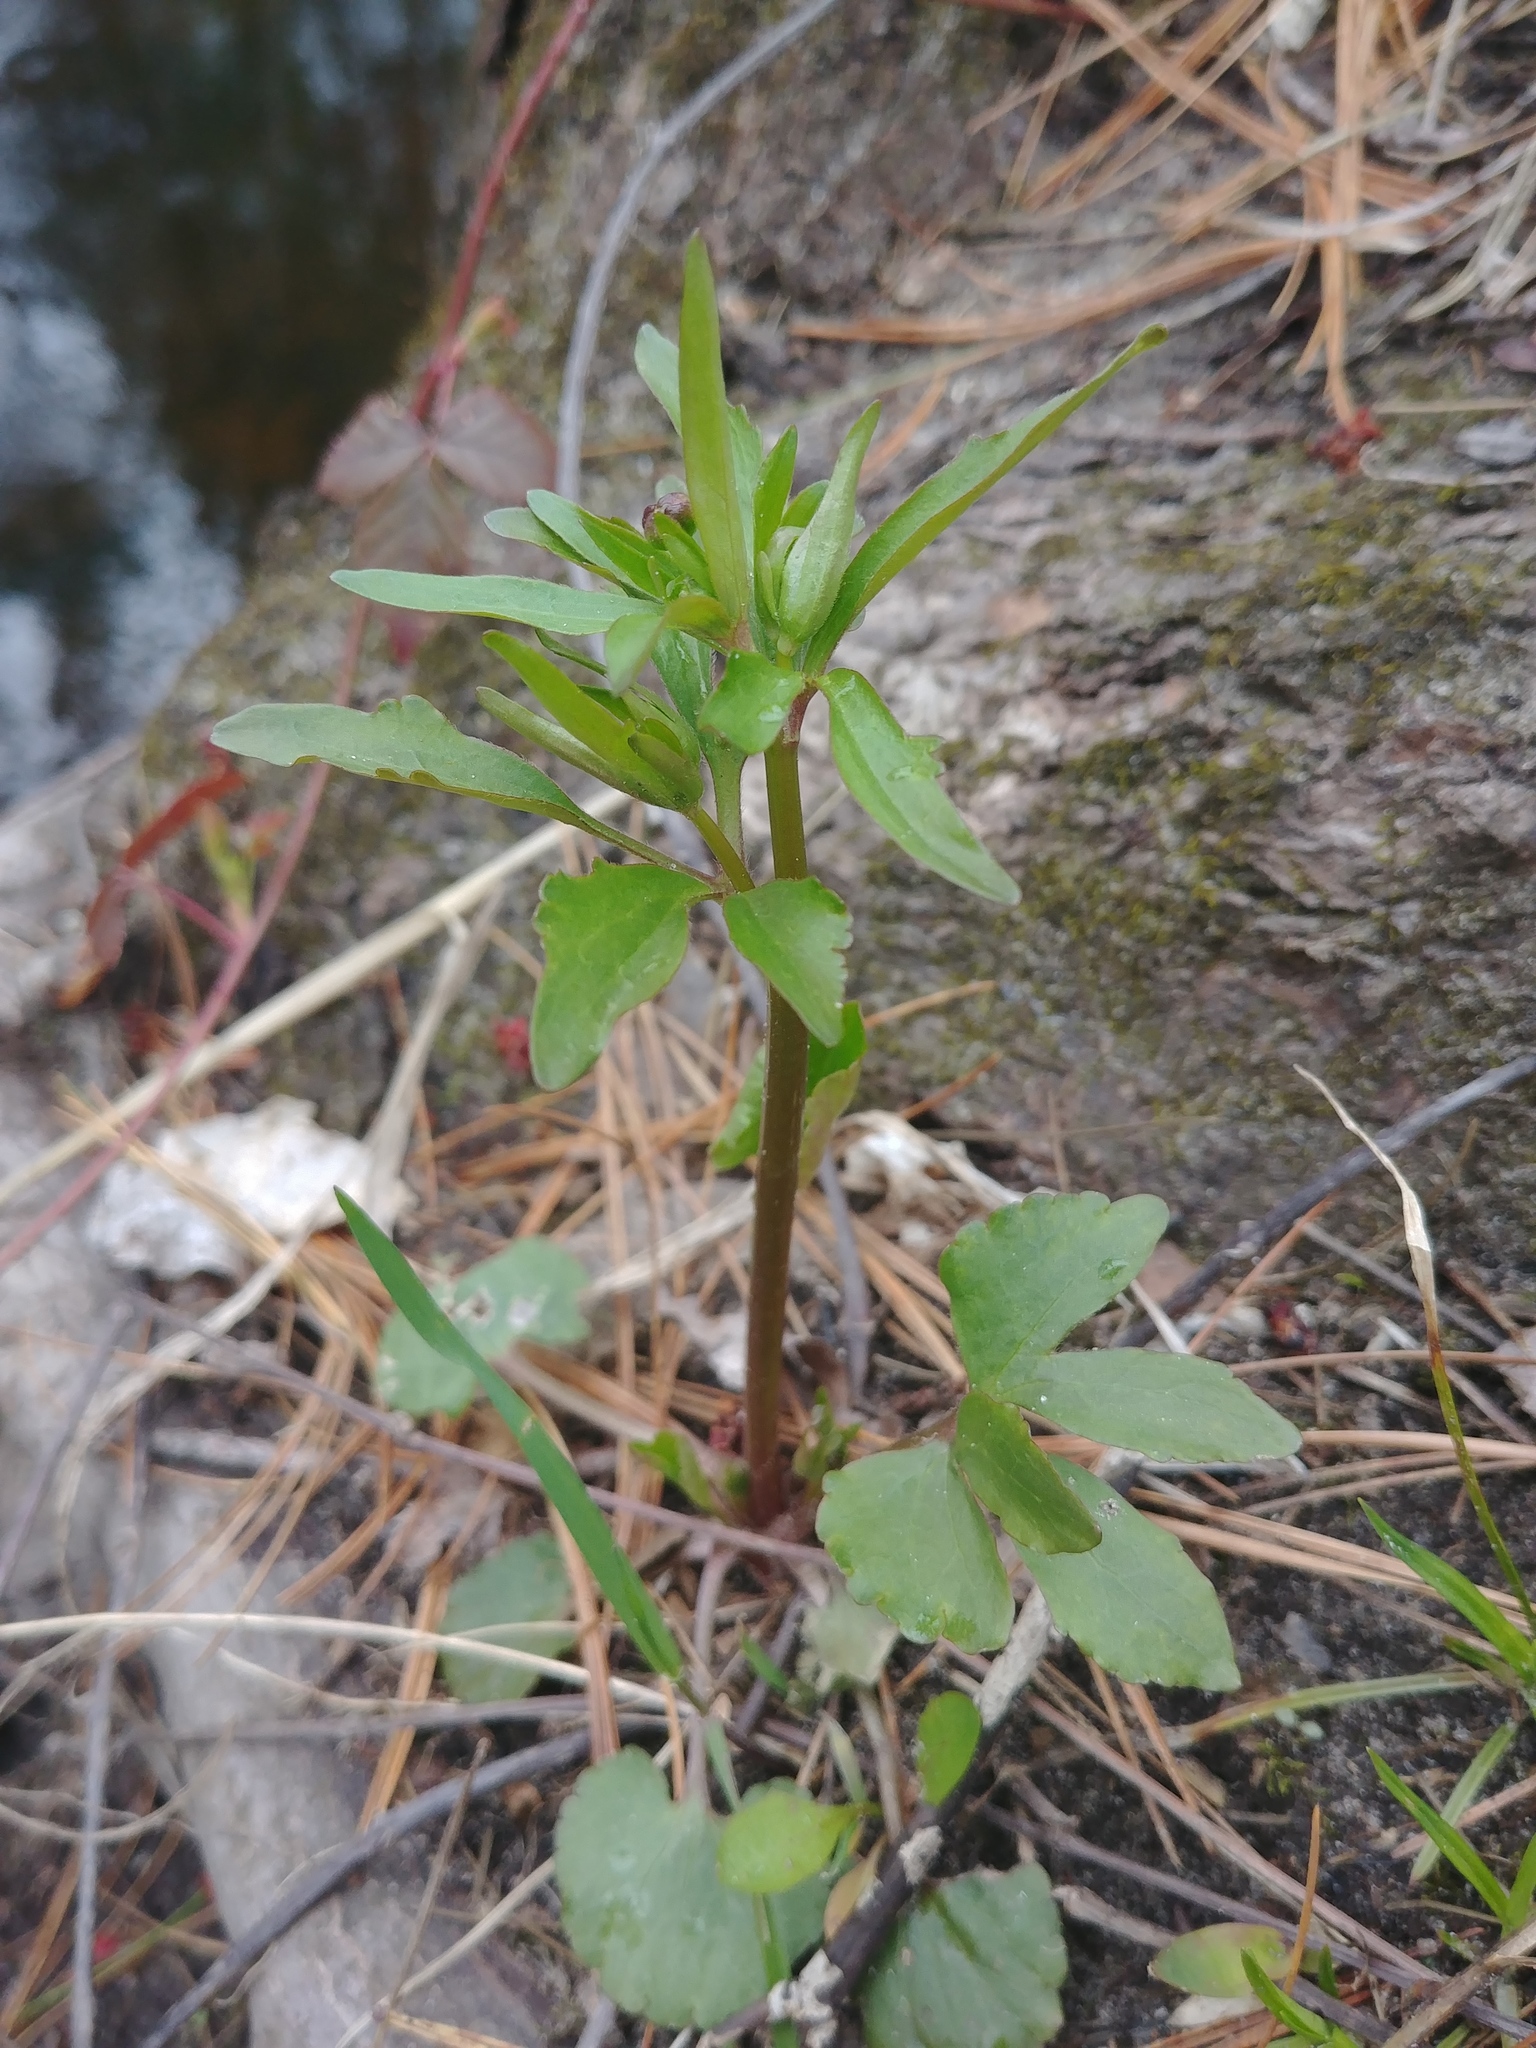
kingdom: Plantae
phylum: Tracheophyta
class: Magnoliopsida
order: Ranunculales
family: Ranunculaceae
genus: Ranunculus
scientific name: Ranunculus abortivus
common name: Early wood buttercup
